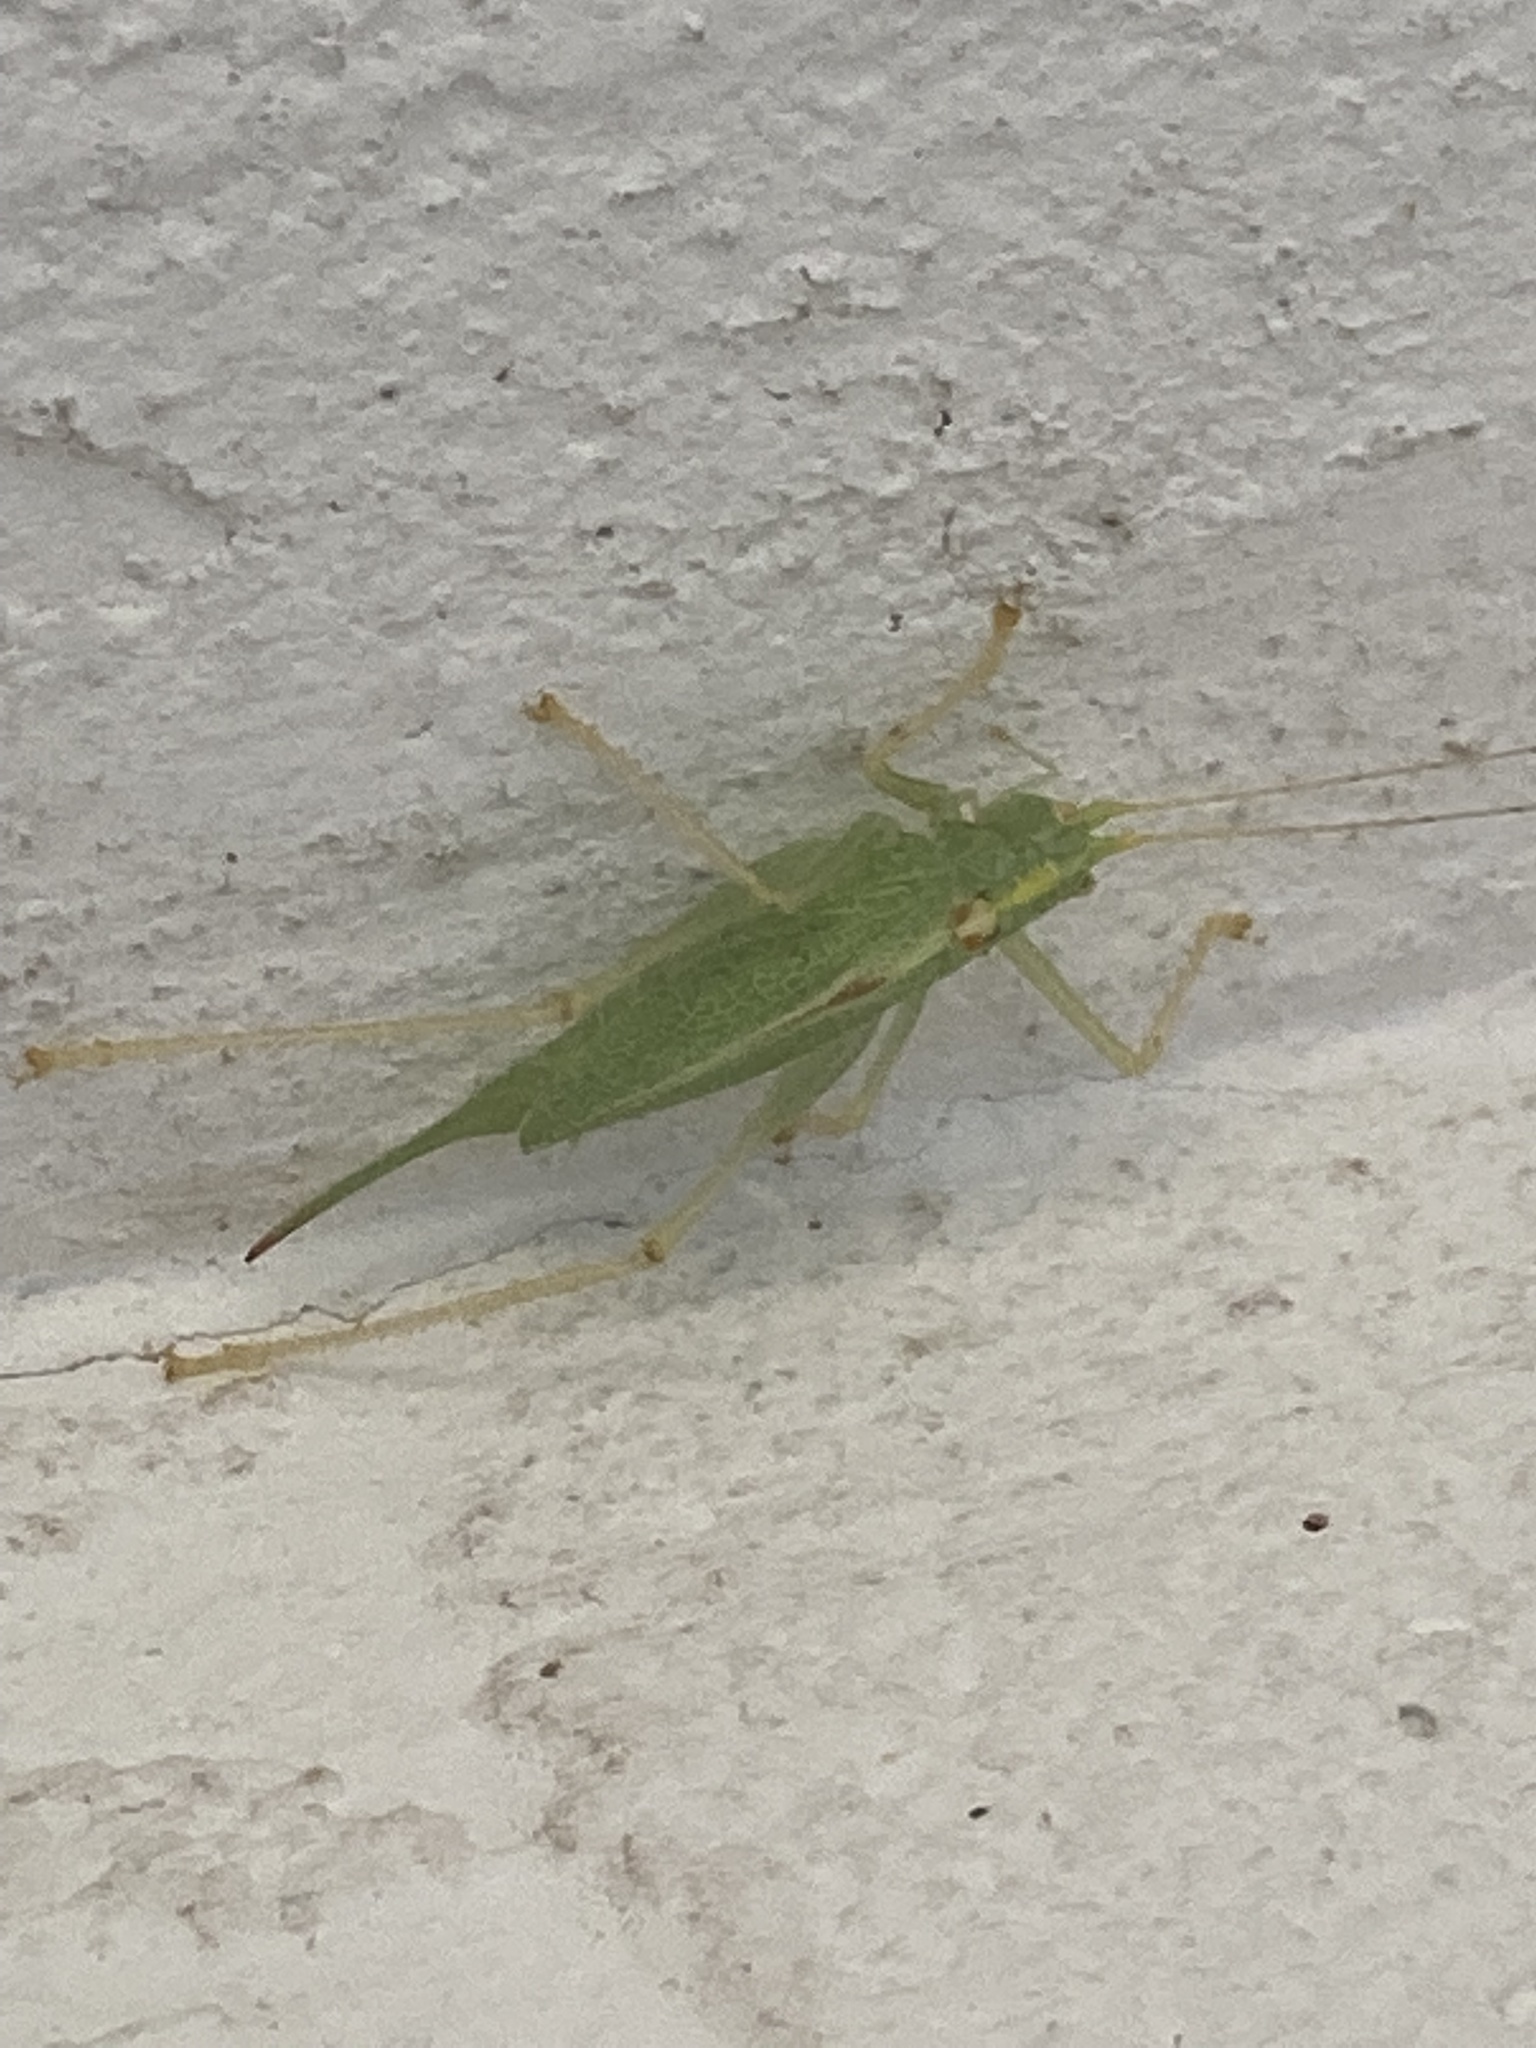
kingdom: Animalia
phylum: Arthropoda
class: Insecta
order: Orthoptera
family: Tettigoniidae
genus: Meconema
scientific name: Meconema thalassinum
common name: Oak bush-cricket
